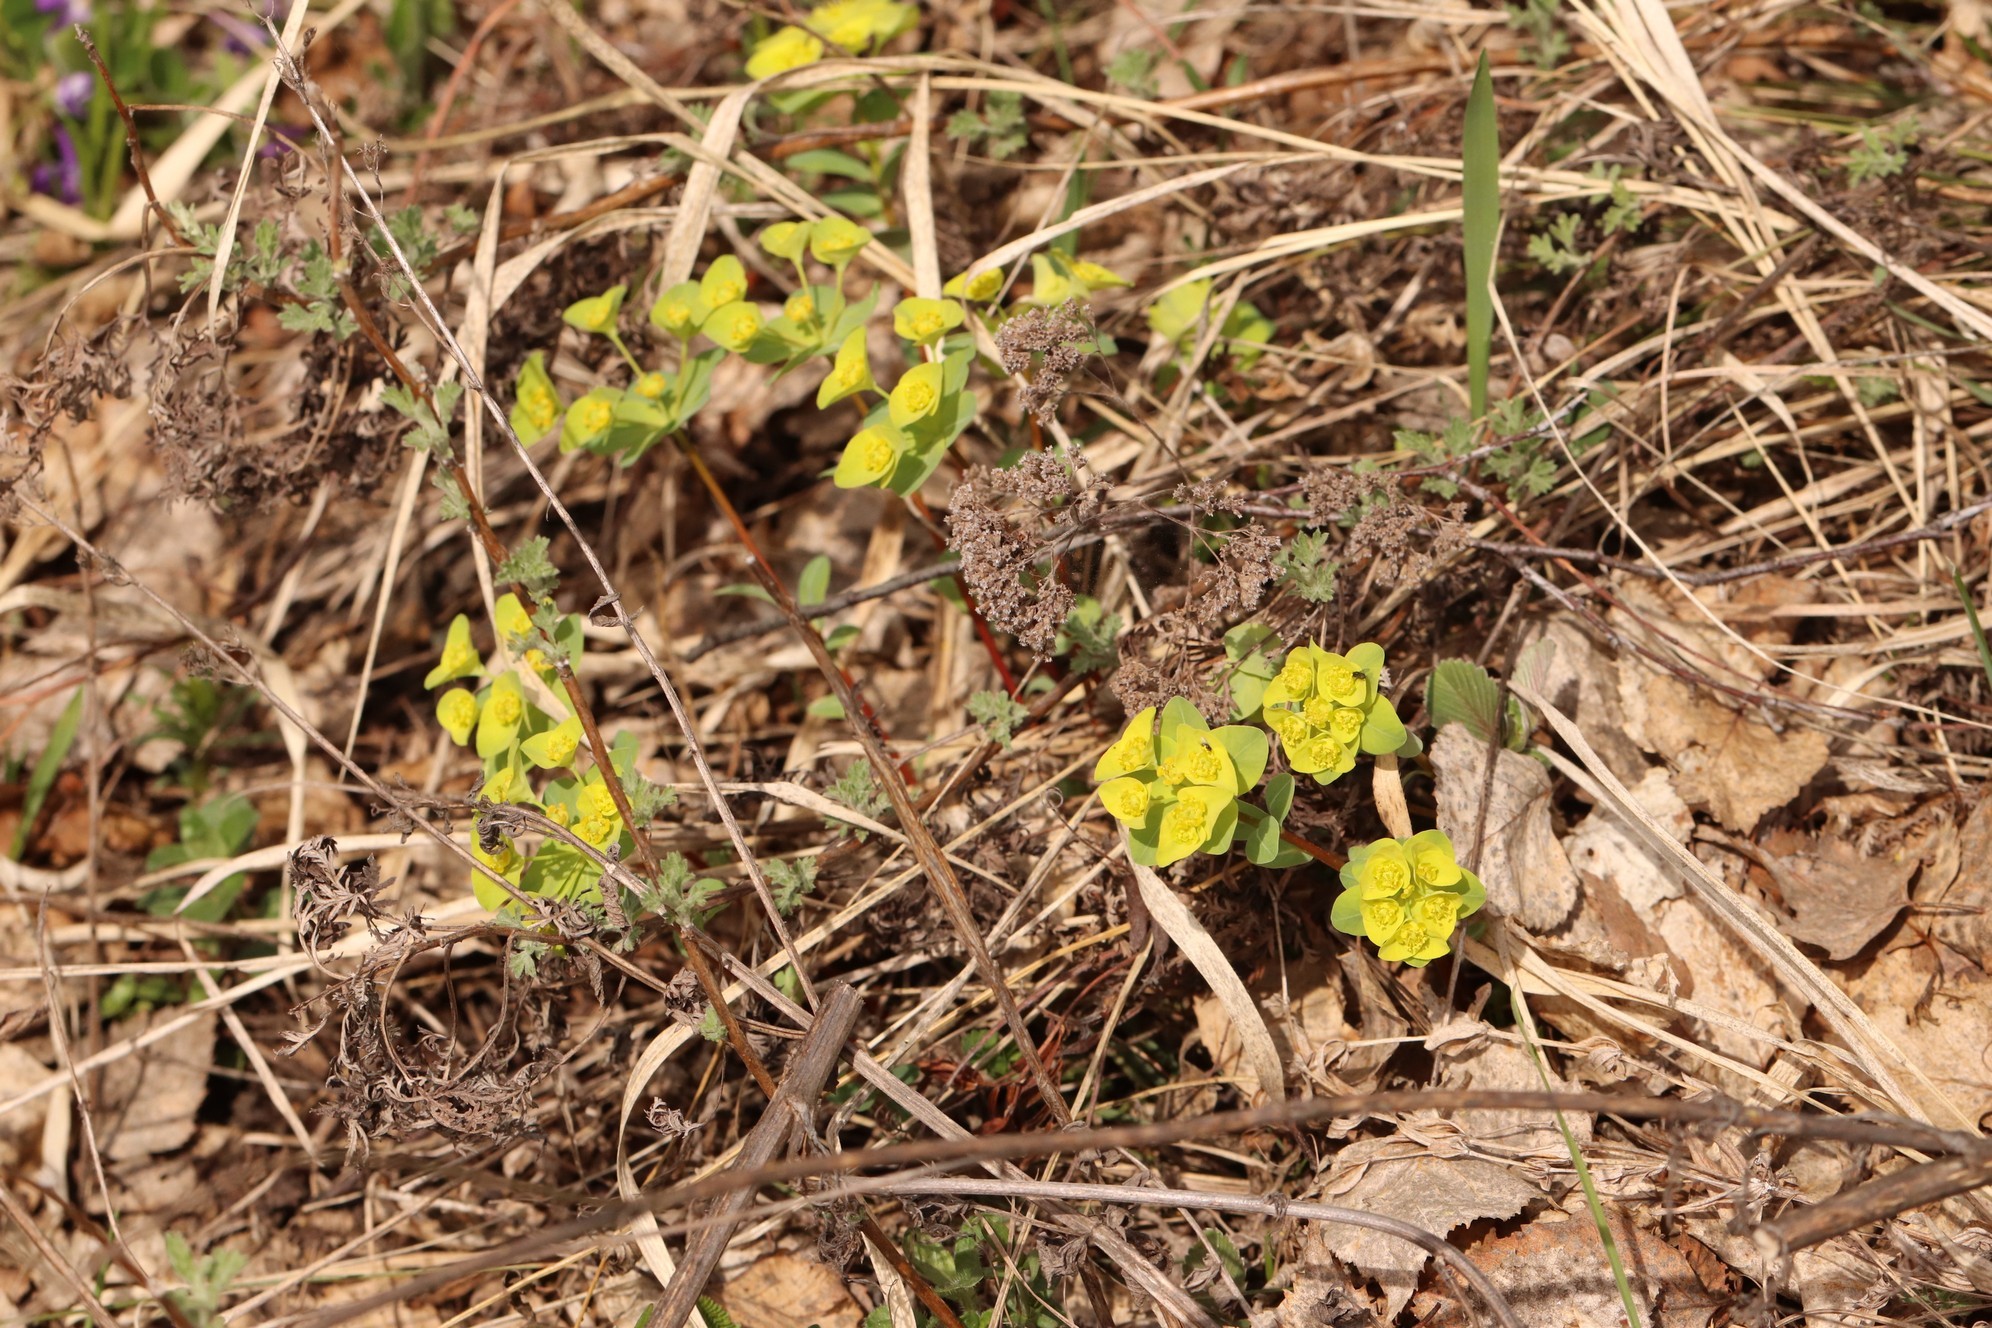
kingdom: Plantae
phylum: Tracheophyta
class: Magnoliopsida
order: Malpighiales
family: Euphorbiaceae
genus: Euphorbia
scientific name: Euphorbia altaica
